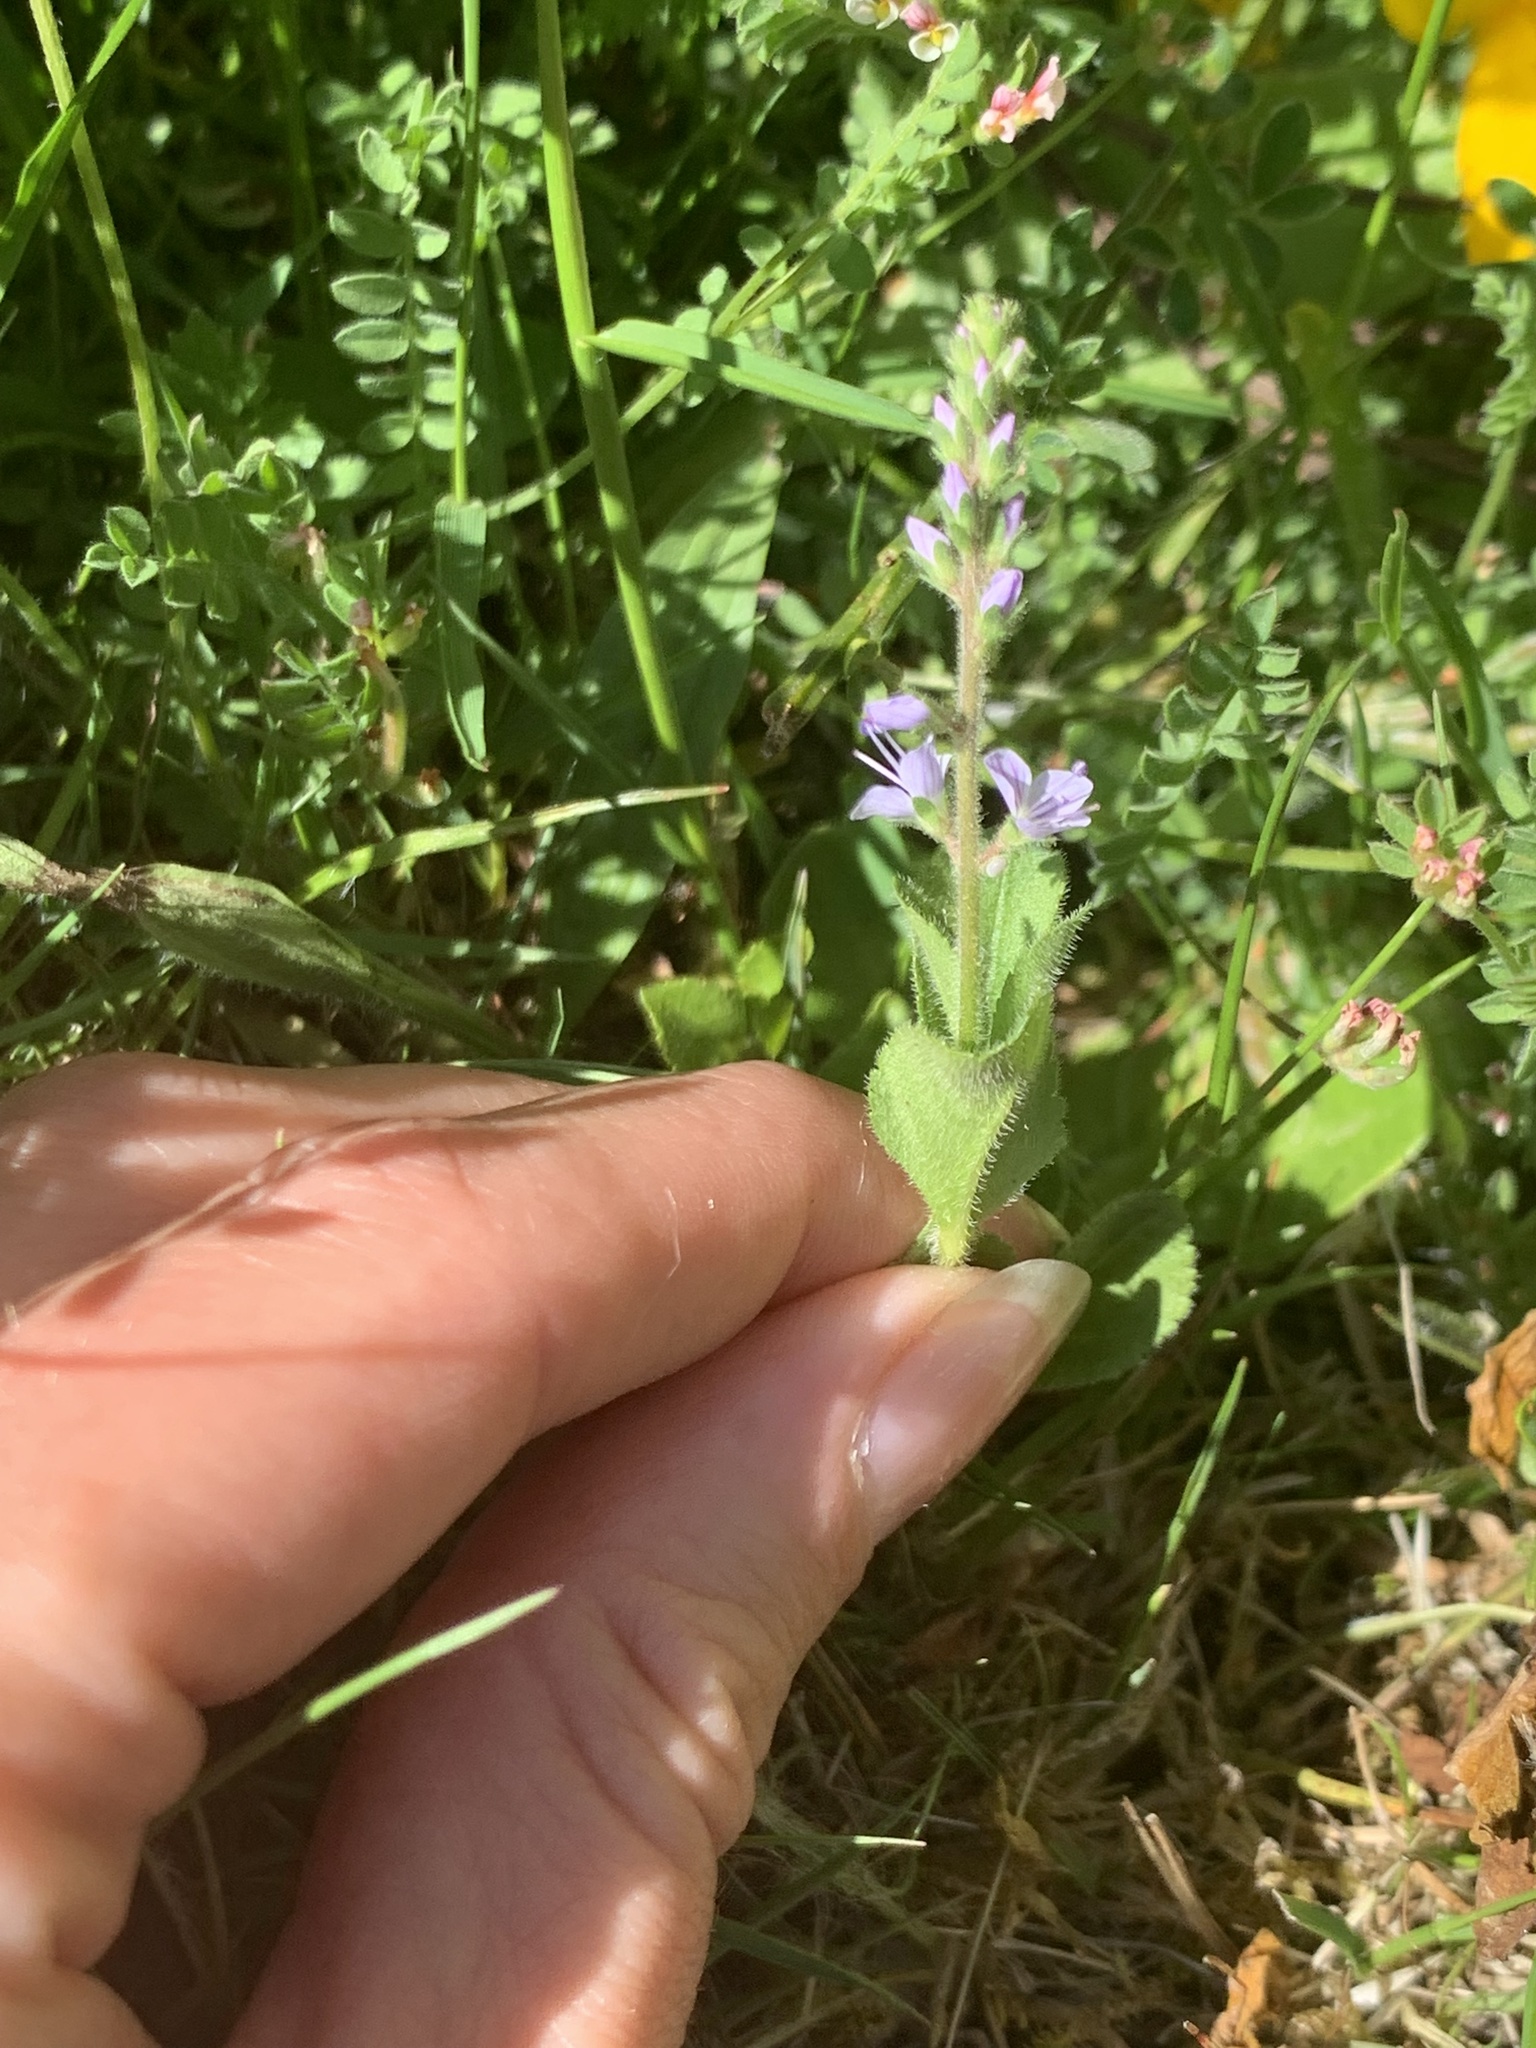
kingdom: Plantae
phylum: Tracheophyta
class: Magnoliopsida
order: Lamiales
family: Plantaginaceae
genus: Veronica
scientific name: Veronica officinalis
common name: Common speedwell
